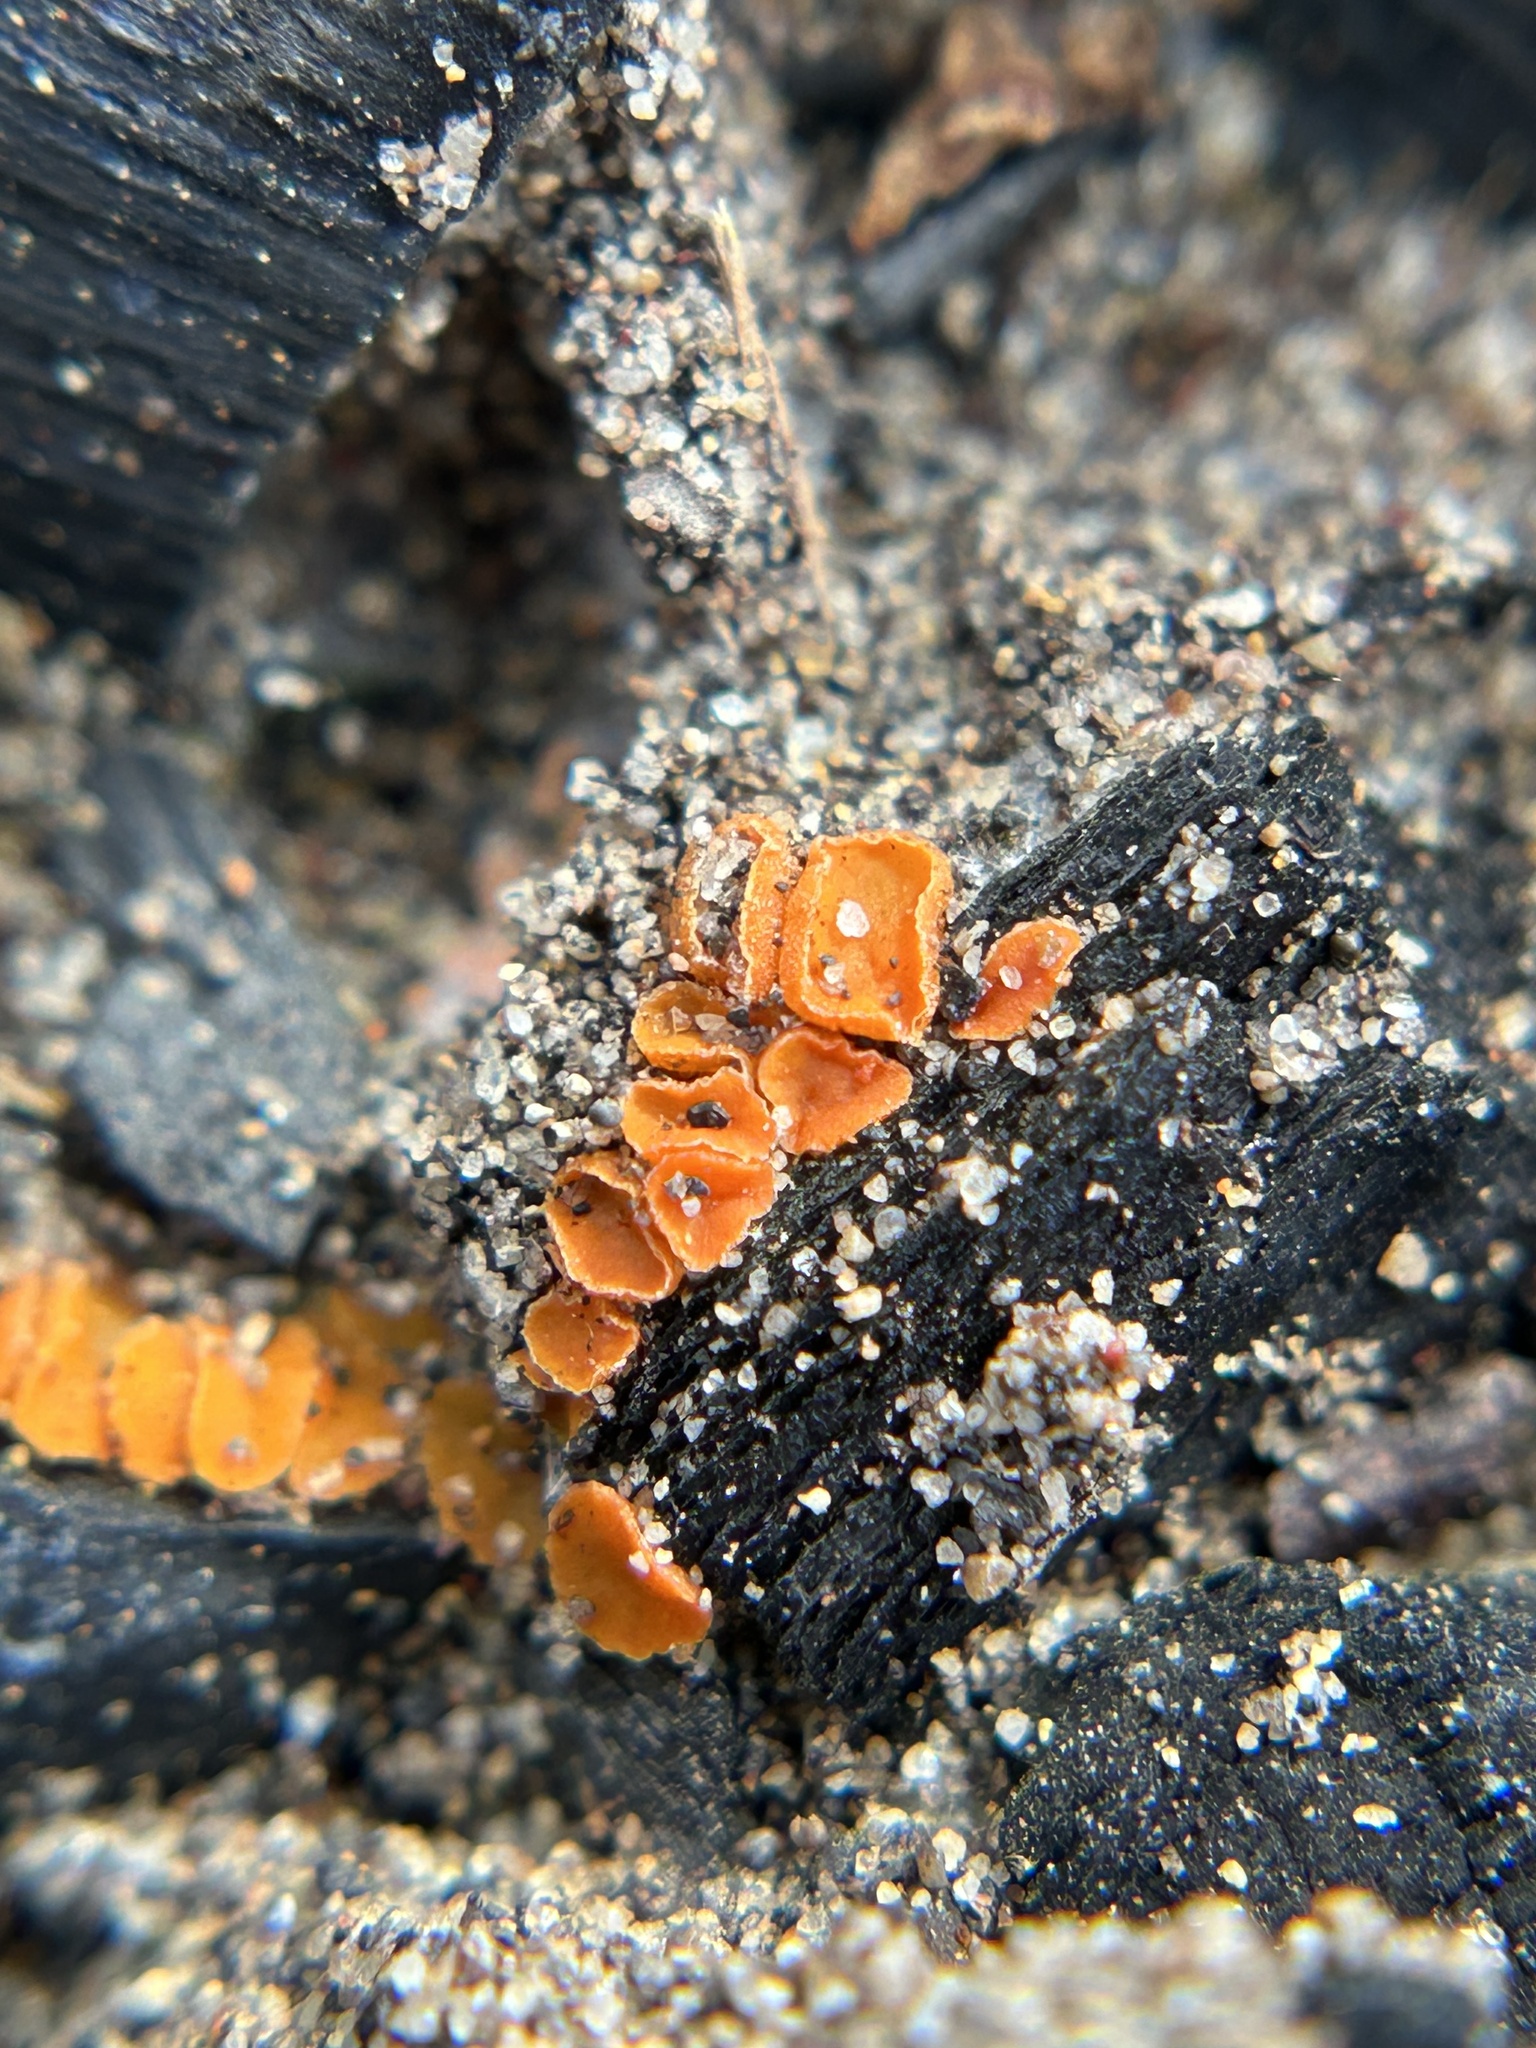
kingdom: Fungi
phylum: Ascomycota
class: Pezizomycetes
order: Pezizales
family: Pyronemataceae
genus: Anthracobia
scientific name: Anthracobia melaloma
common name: Charcoal eyelash
